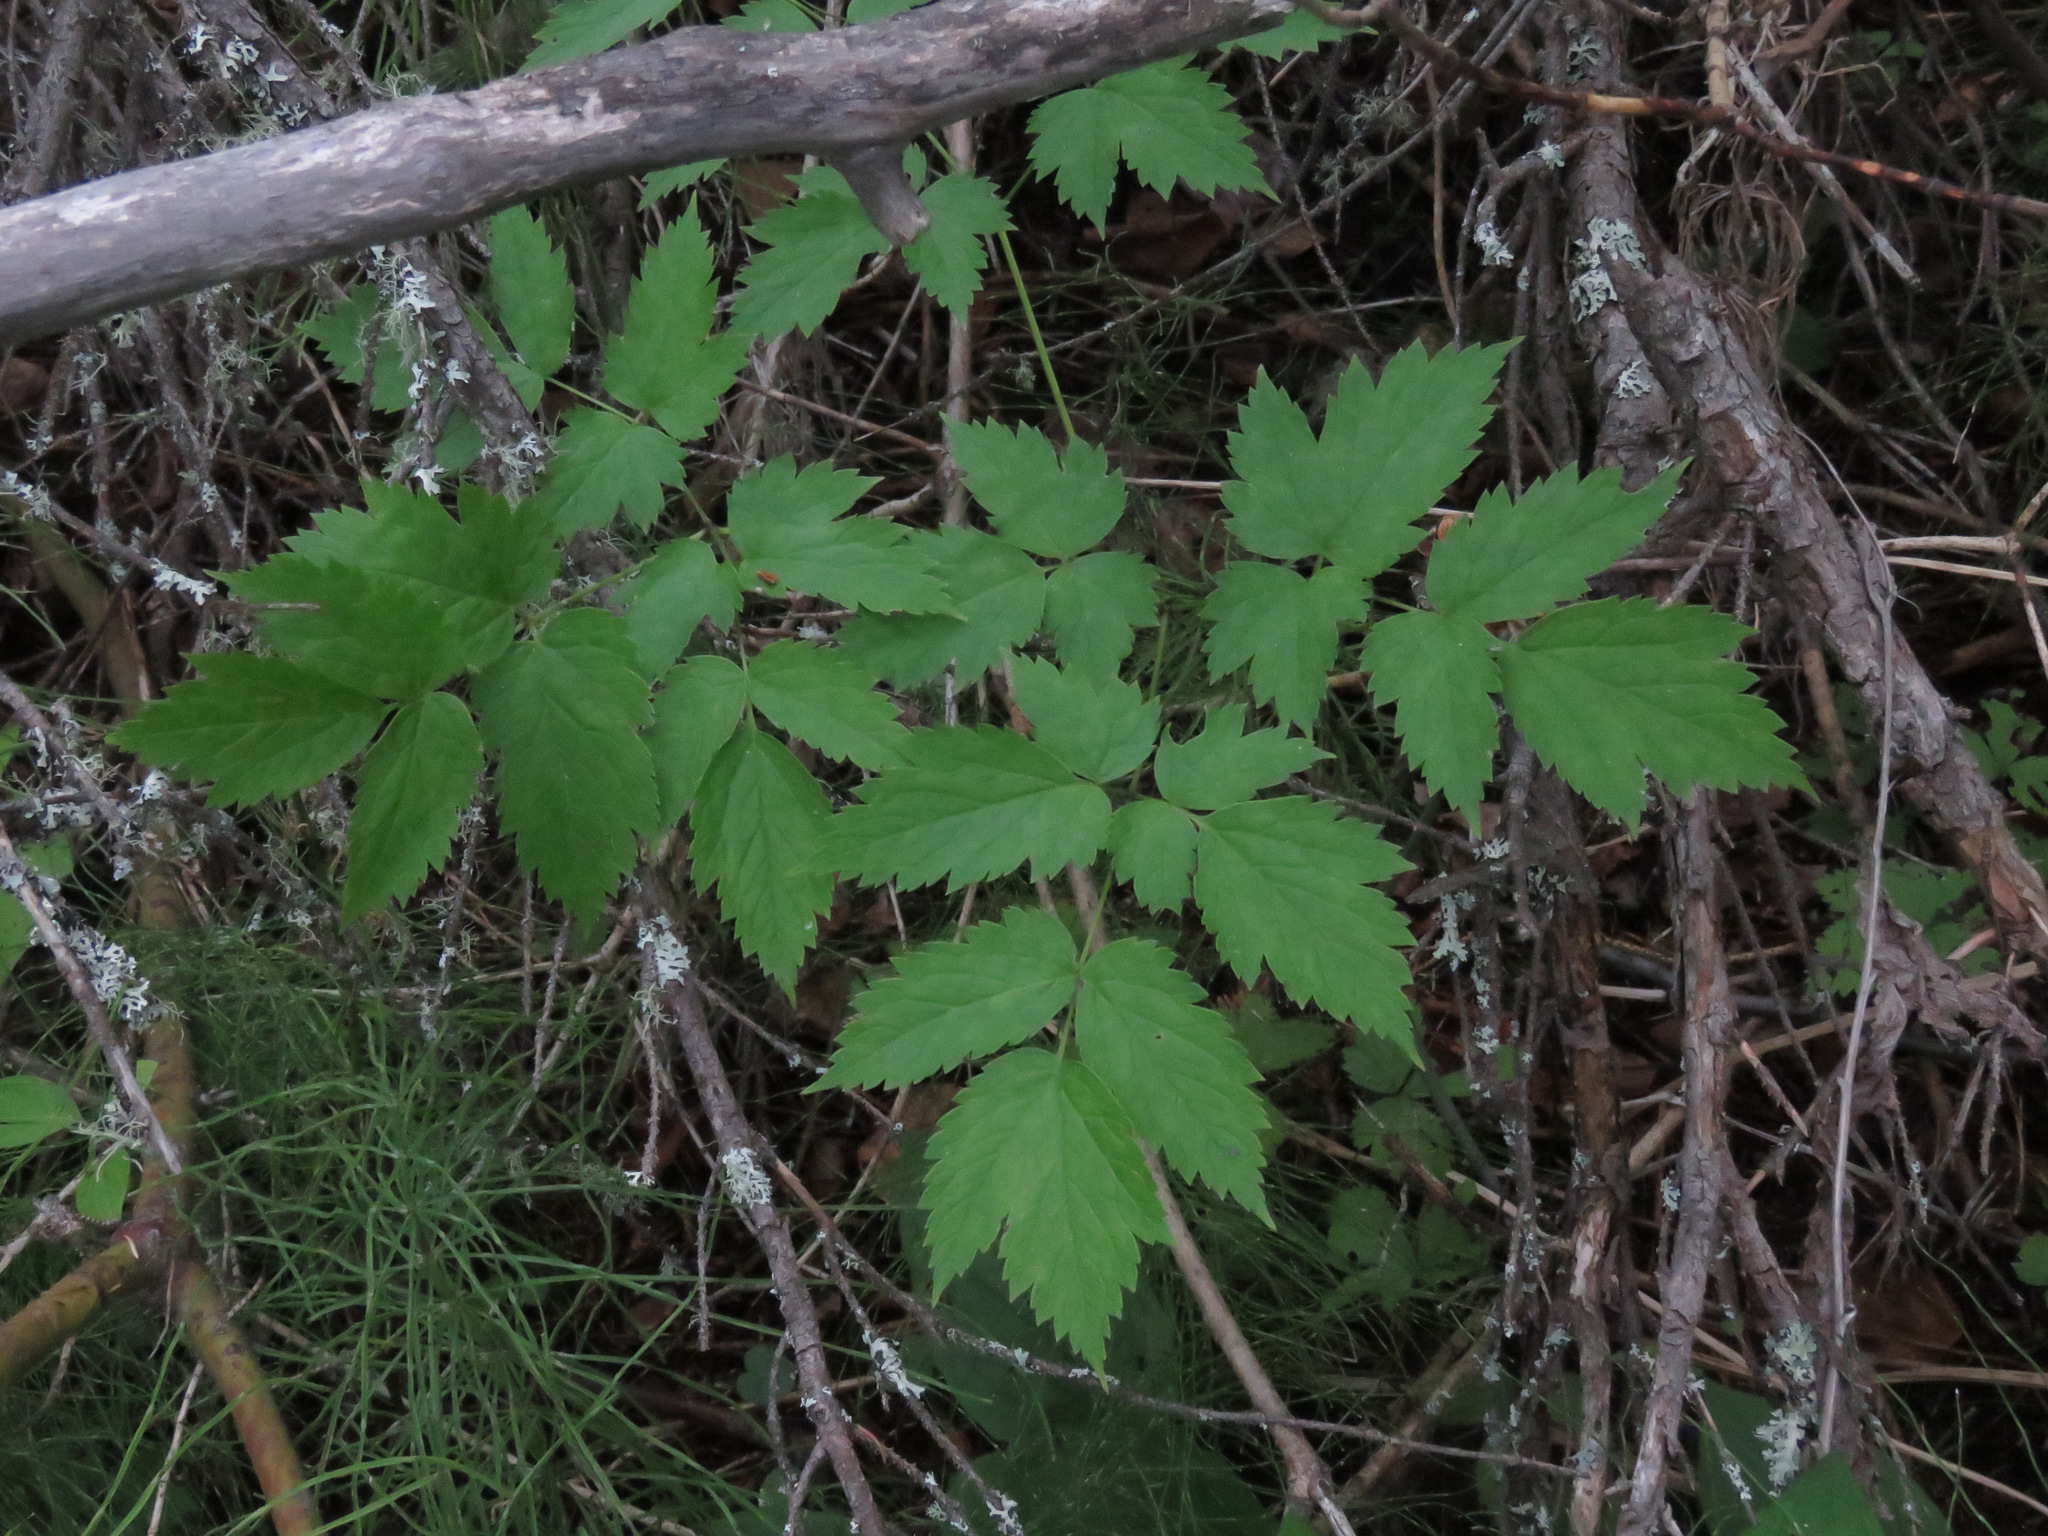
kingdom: Plantae
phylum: Tracheophyta
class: Magnoliopsida
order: Ranunculales
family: Ranunculaceae
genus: Actaea
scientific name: Actaea rubra
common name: Red baneberry
